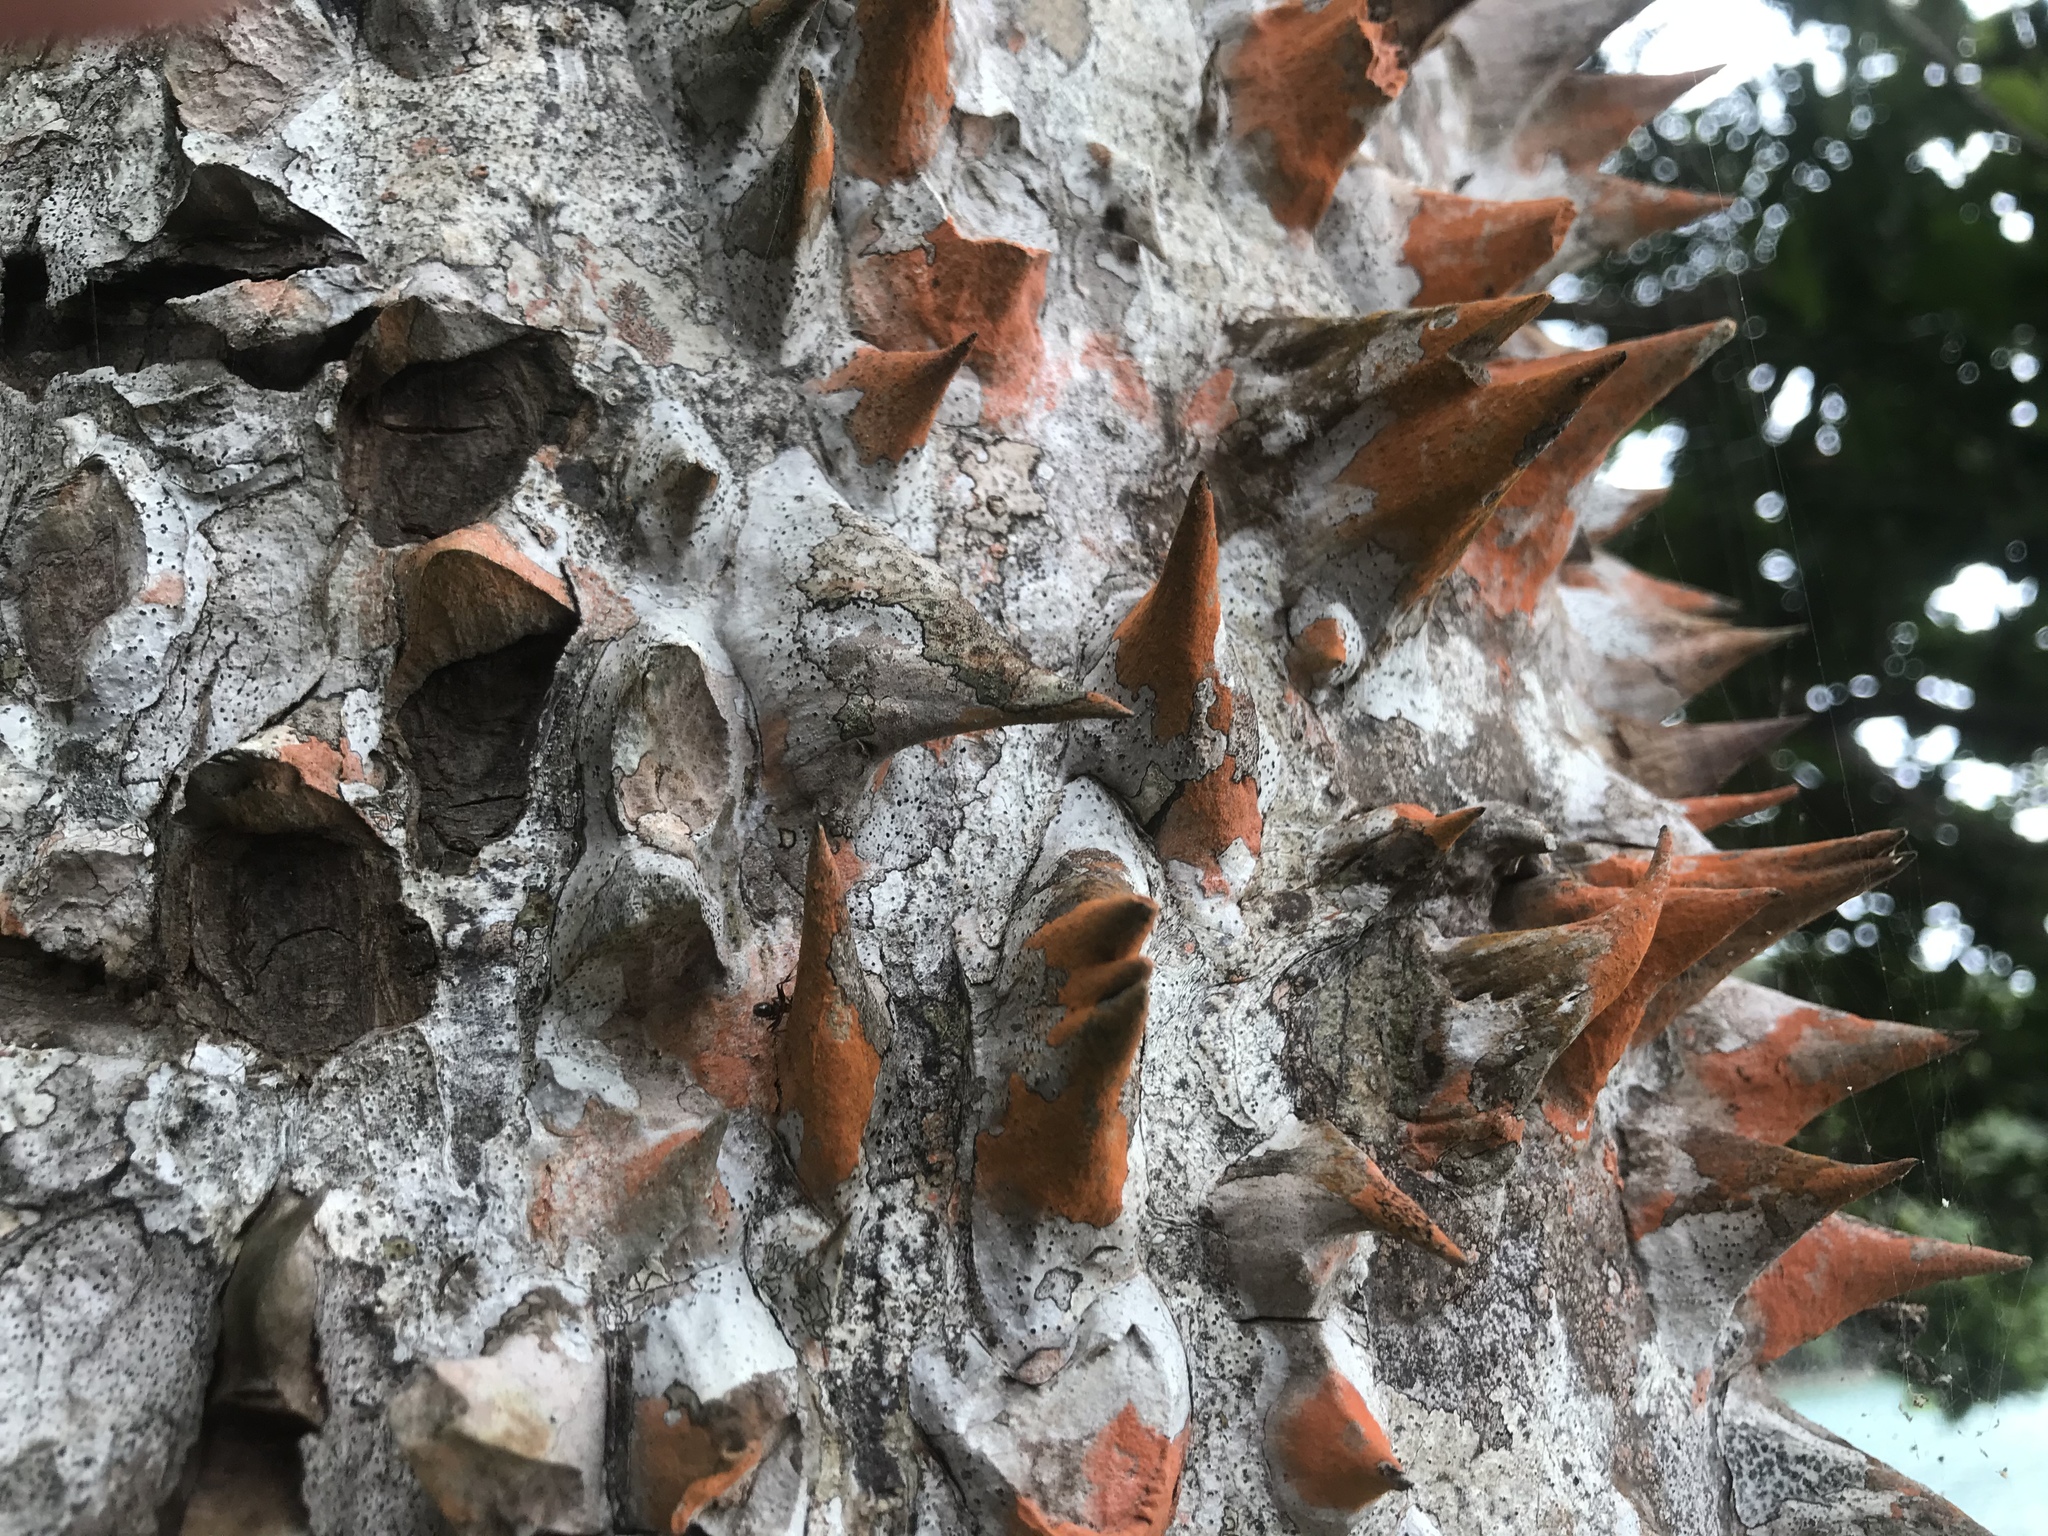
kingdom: Plantae
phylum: Tracheophyta
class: Magnoliopsida
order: Malvales
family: Malvaceae
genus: Pochota
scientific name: Pochota fendleri
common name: Chestnut
